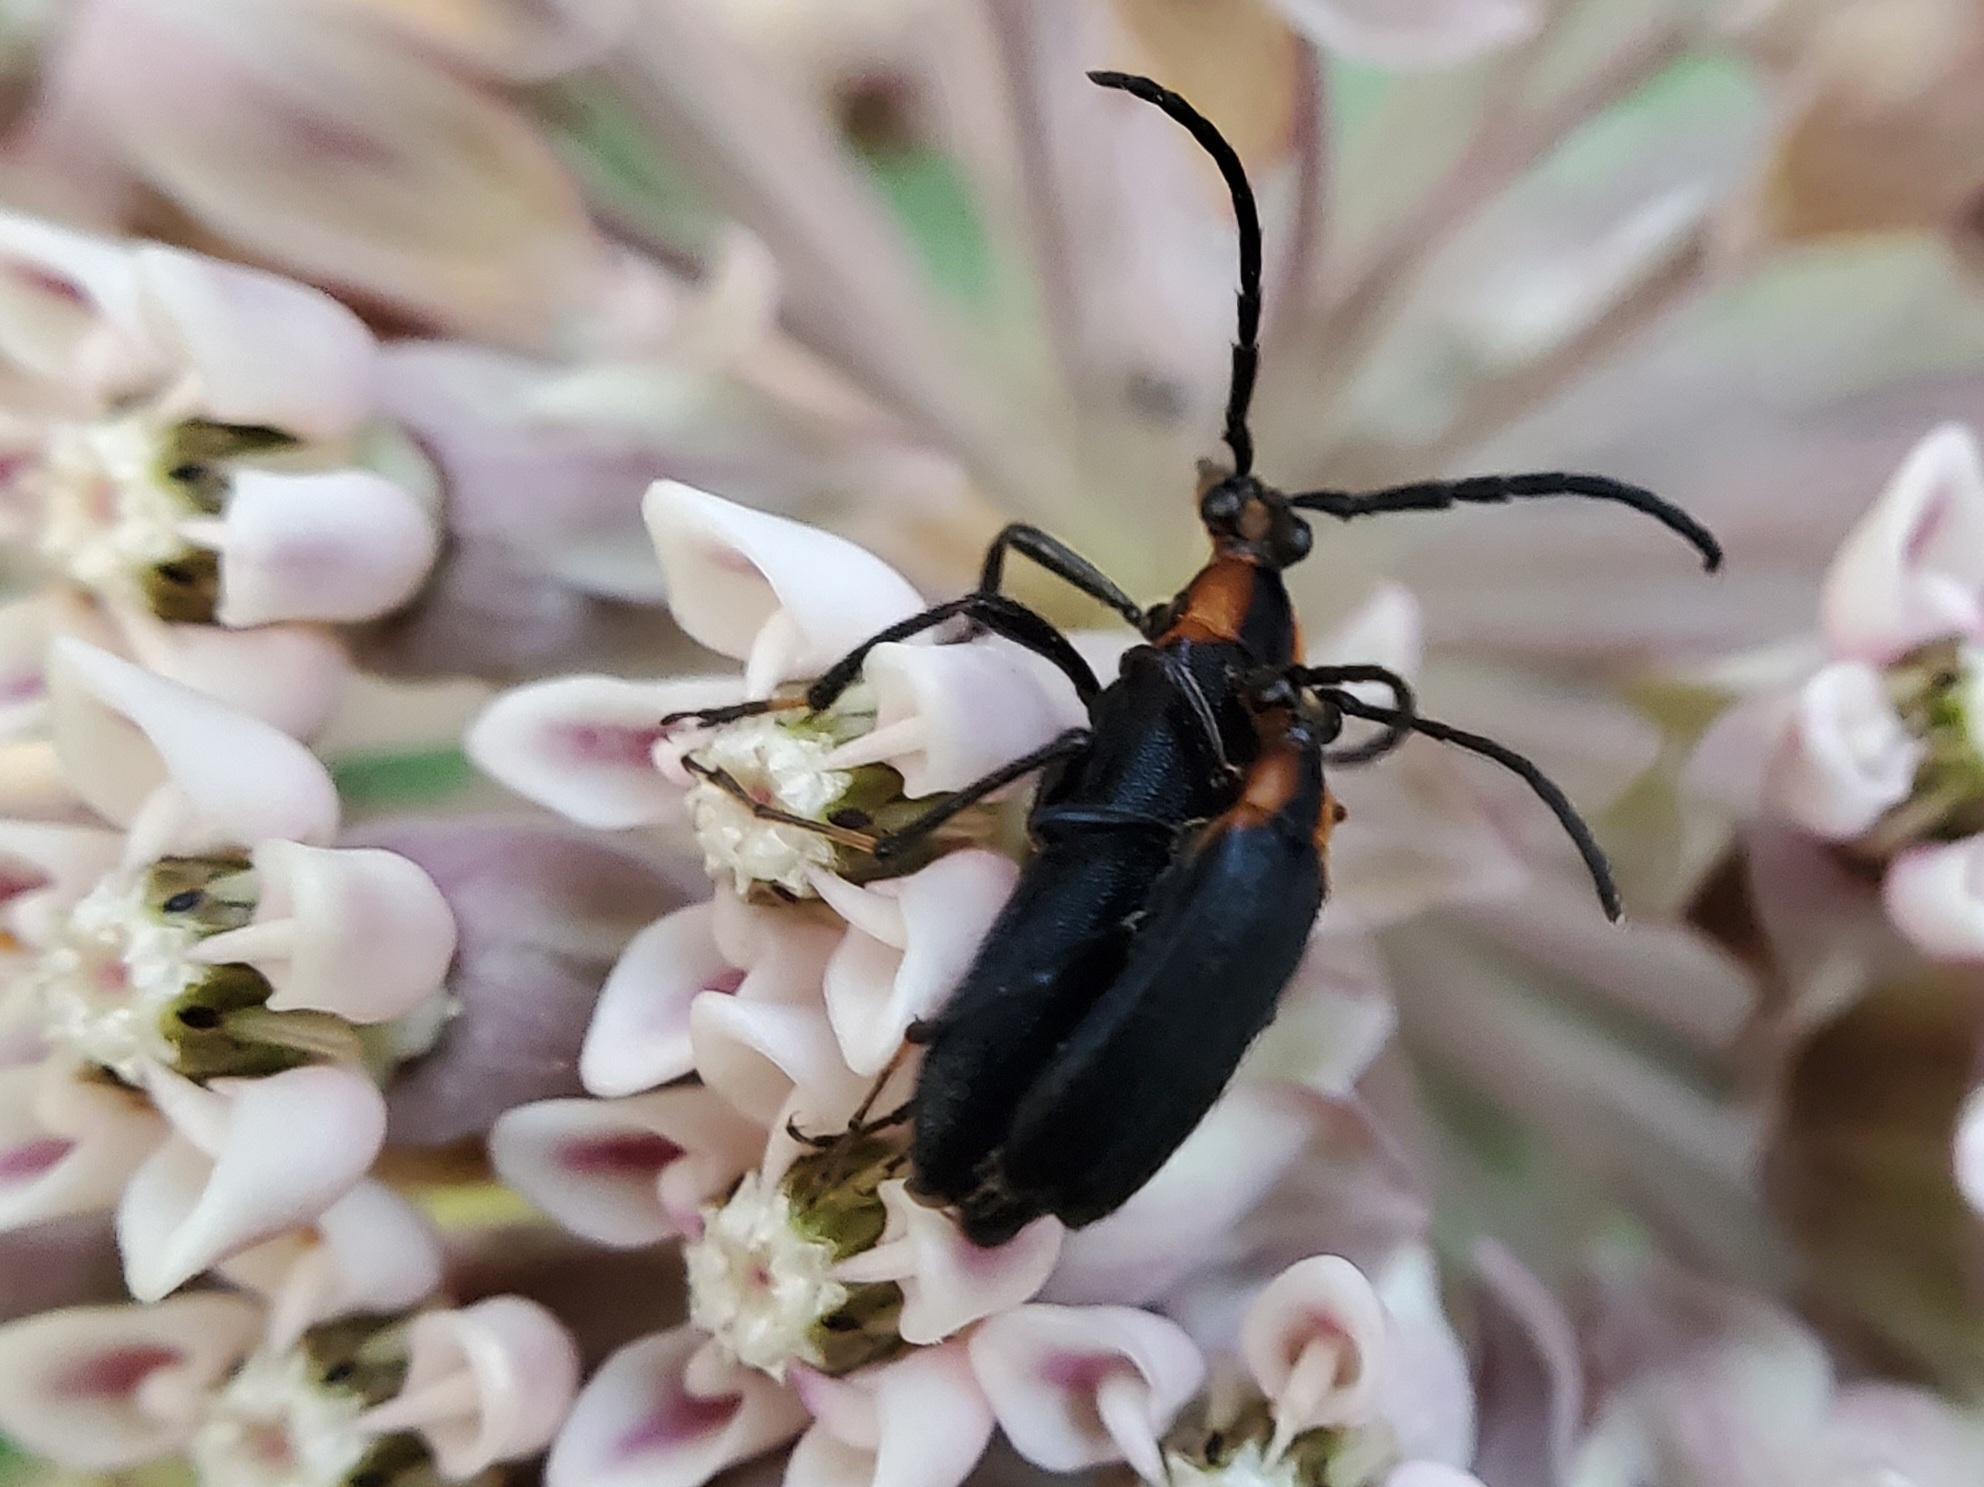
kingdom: Animalia
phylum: Arthropoda
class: Insecta
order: Coleoptera
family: Cerambycidae
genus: Lycochoriolaus
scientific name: Lycochoriolaus lateralis
